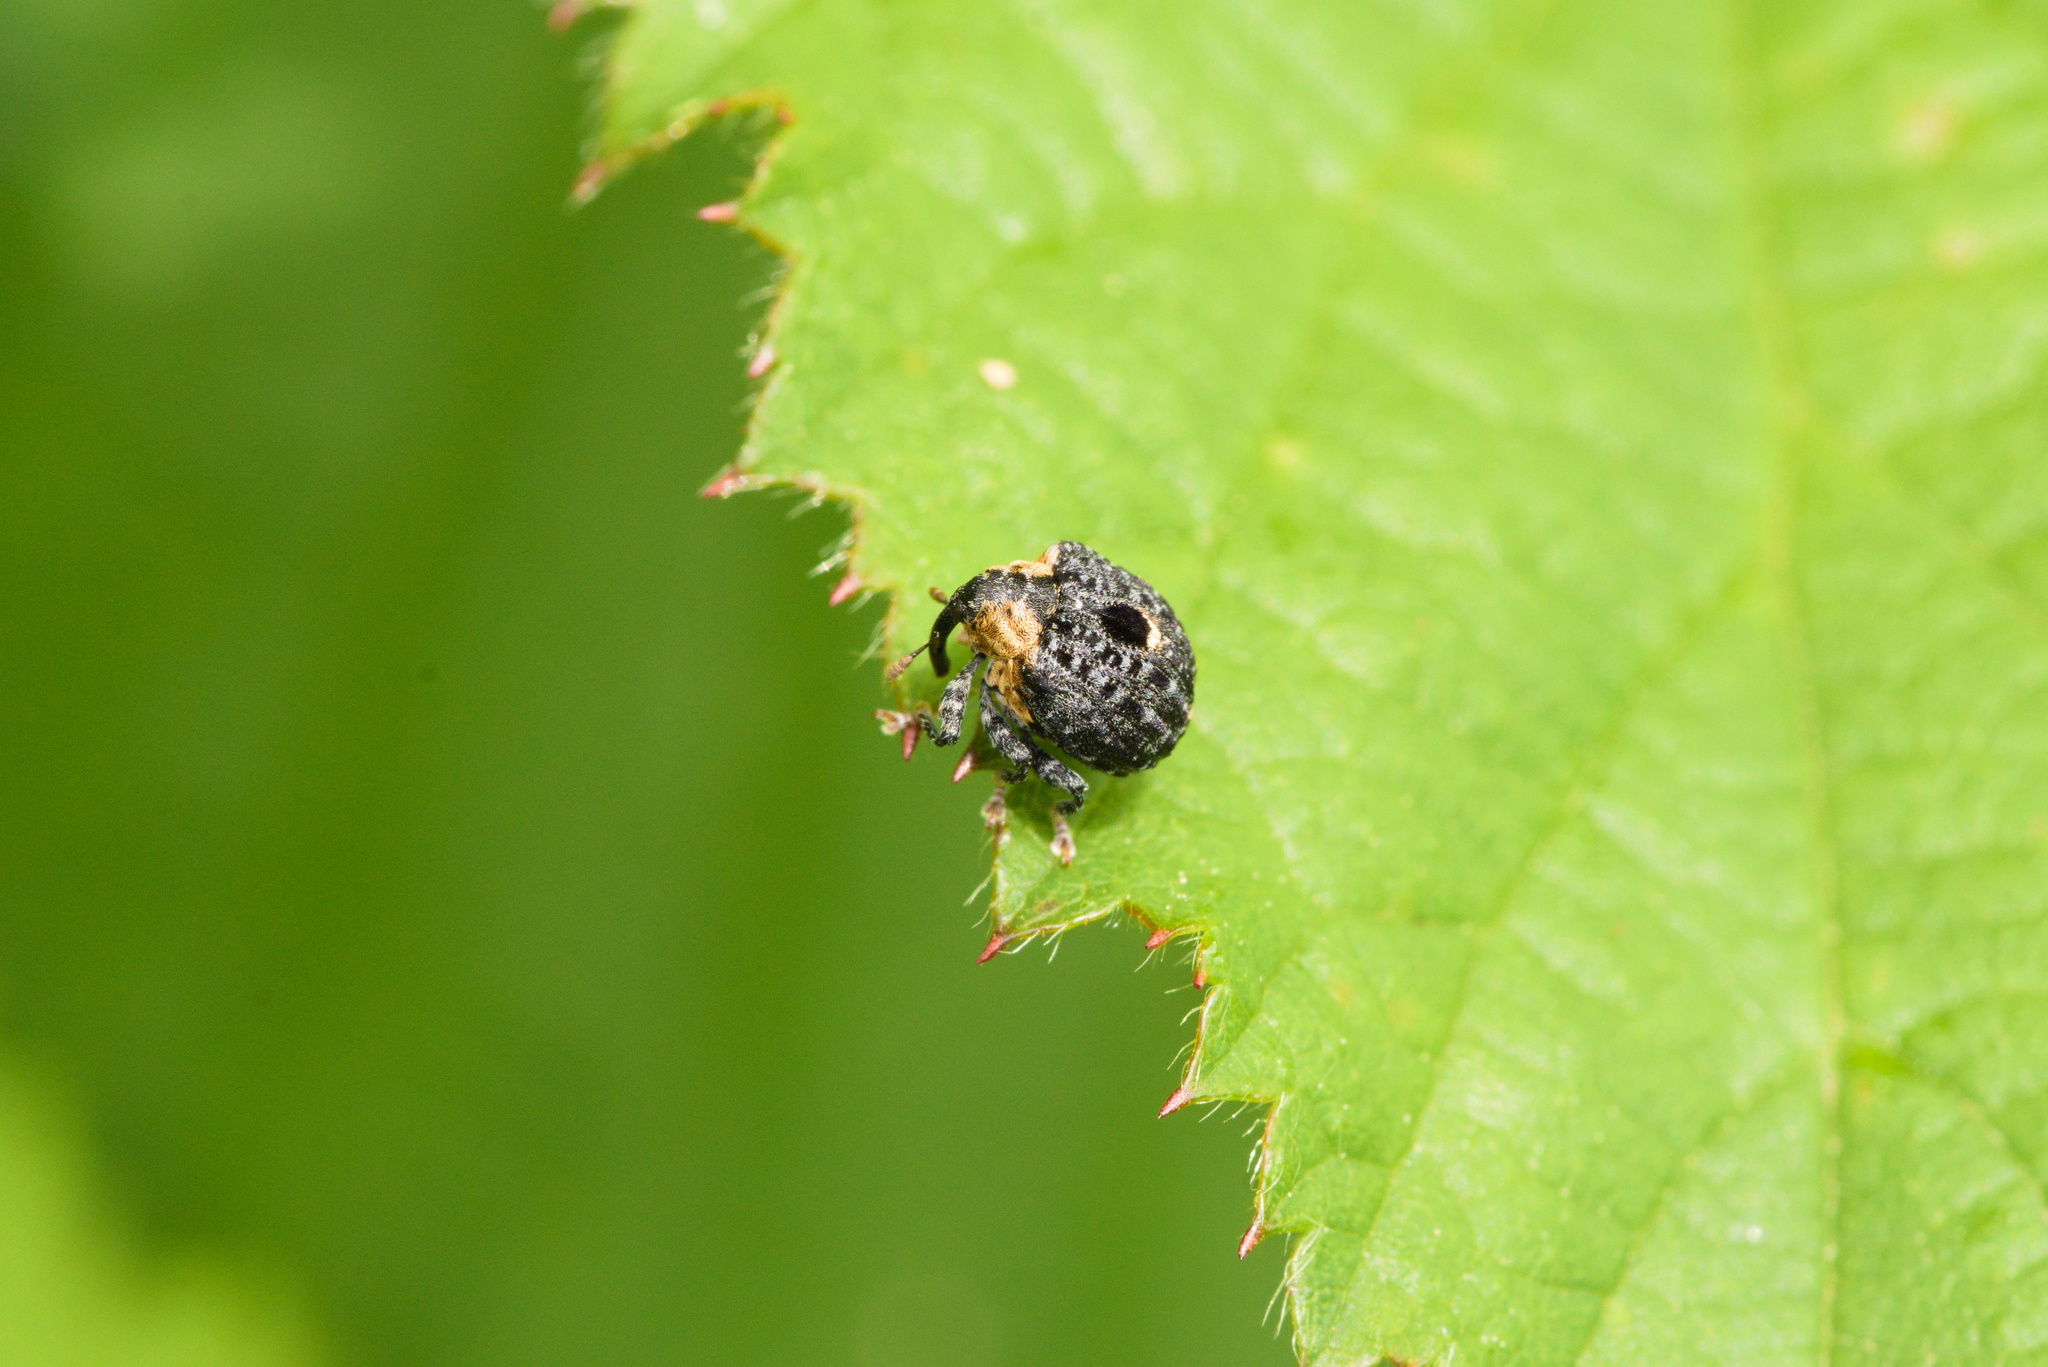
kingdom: Animalia
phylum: Arthropoda
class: Insecta
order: Coleoptera
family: Curculionidae
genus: Cionus
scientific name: Cionus tuberculosus
